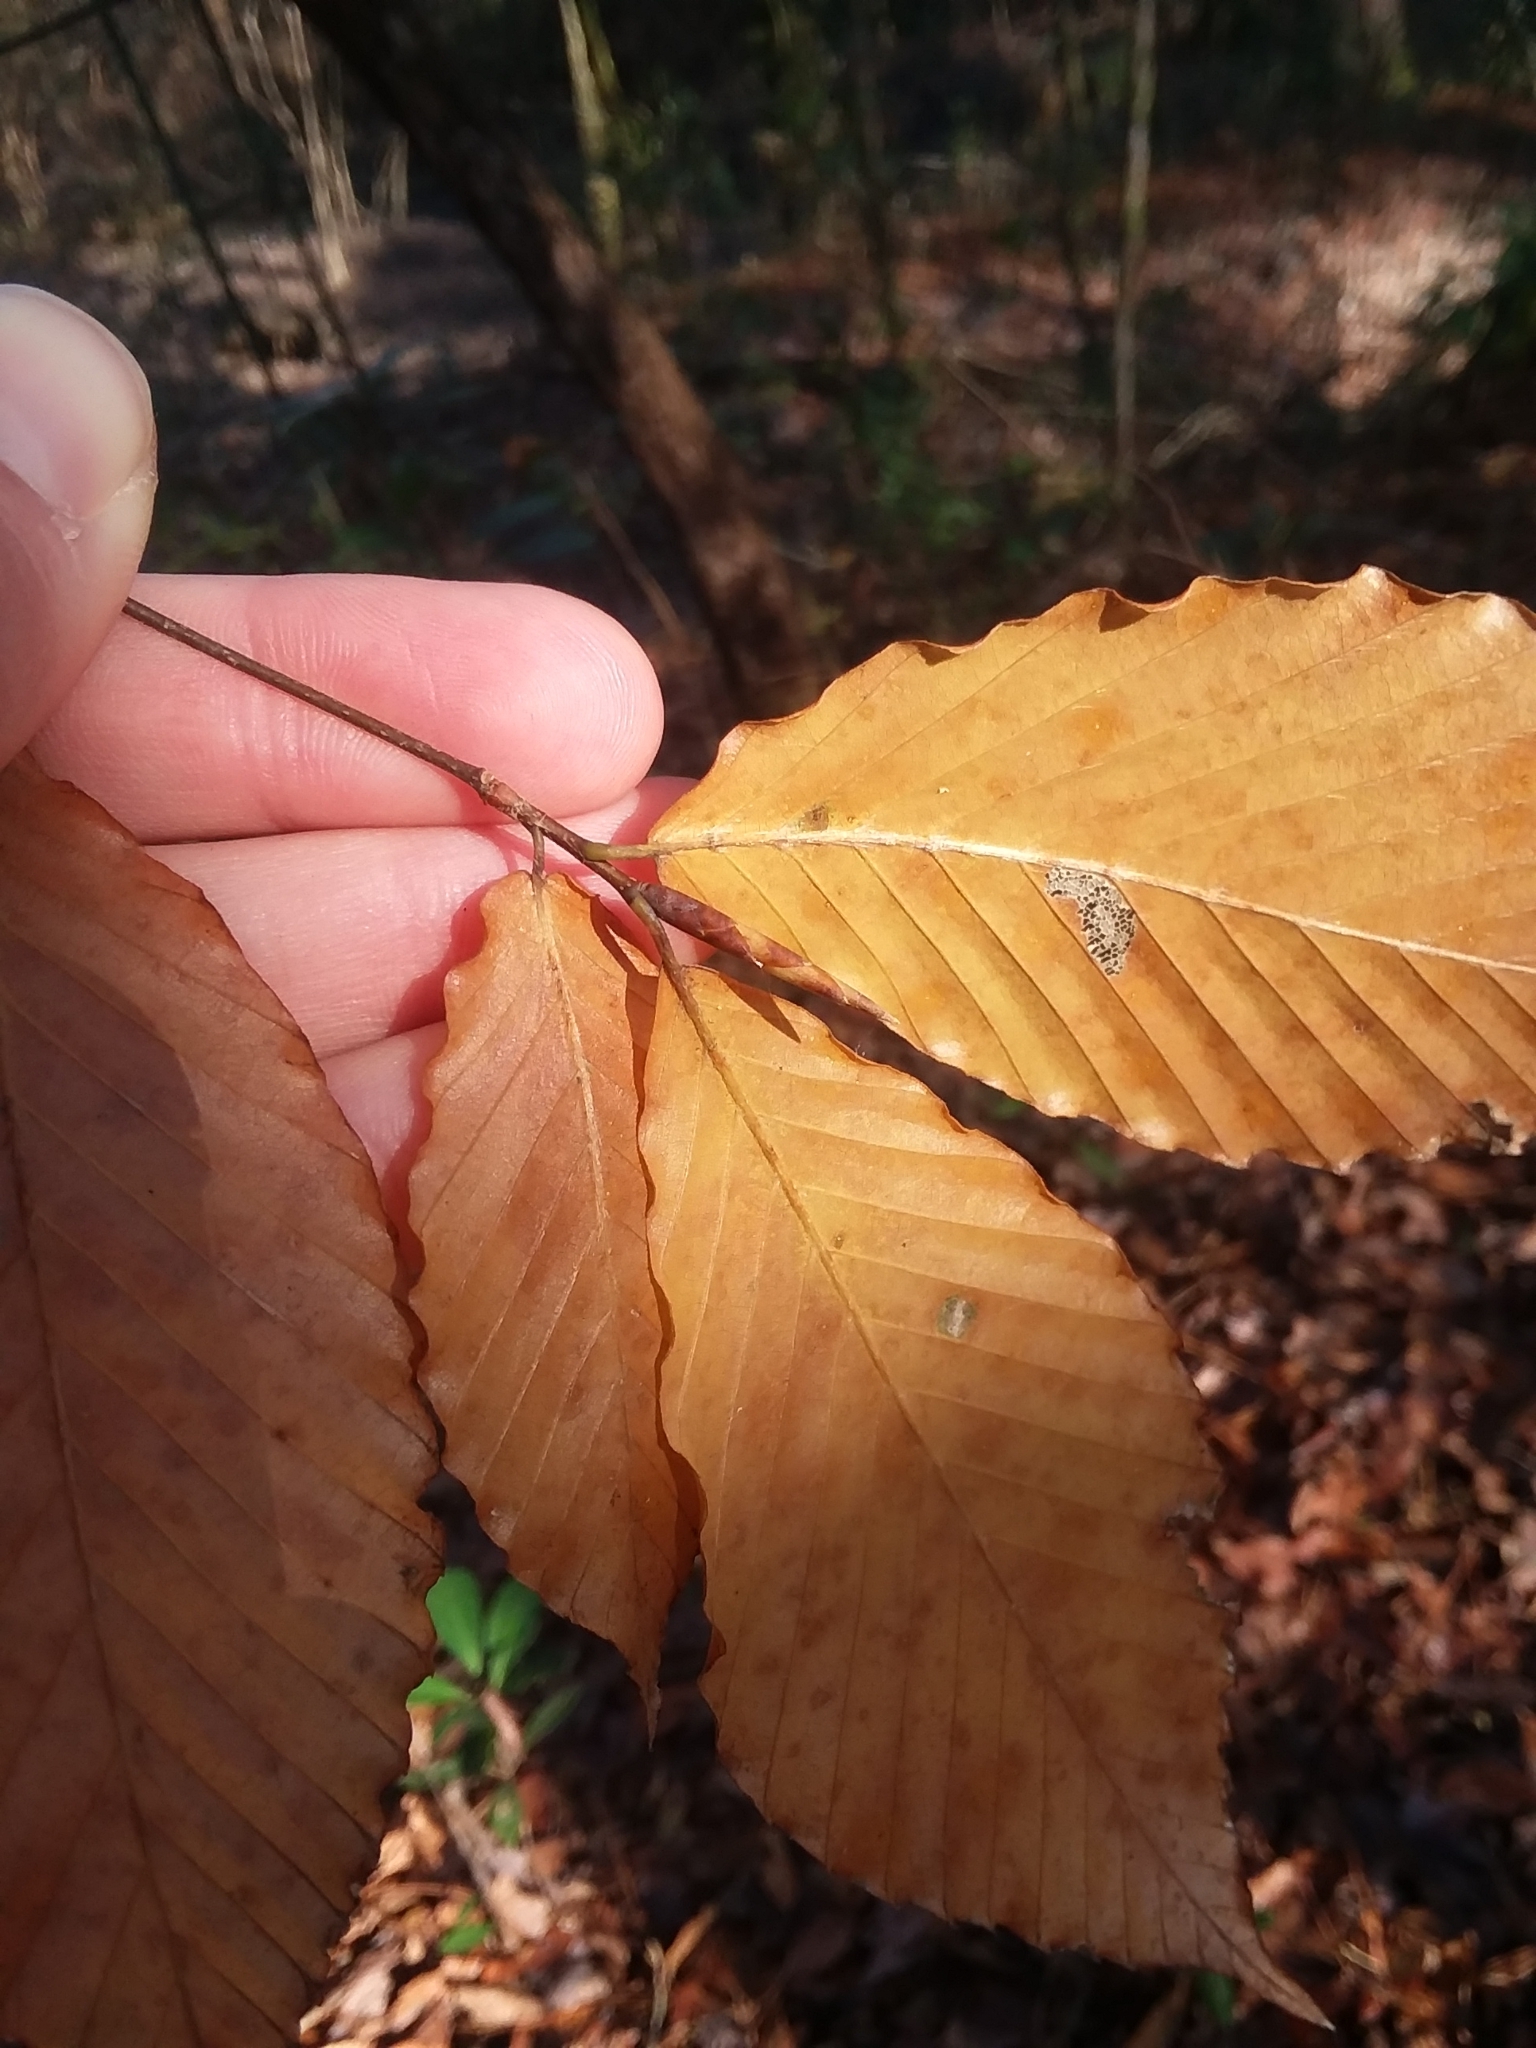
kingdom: Plantae
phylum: Tracheophyta
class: Magnoliopsida
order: Fagales
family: Fagaceae
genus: Fagus
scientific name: Fagus grandifolia
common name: American beech
